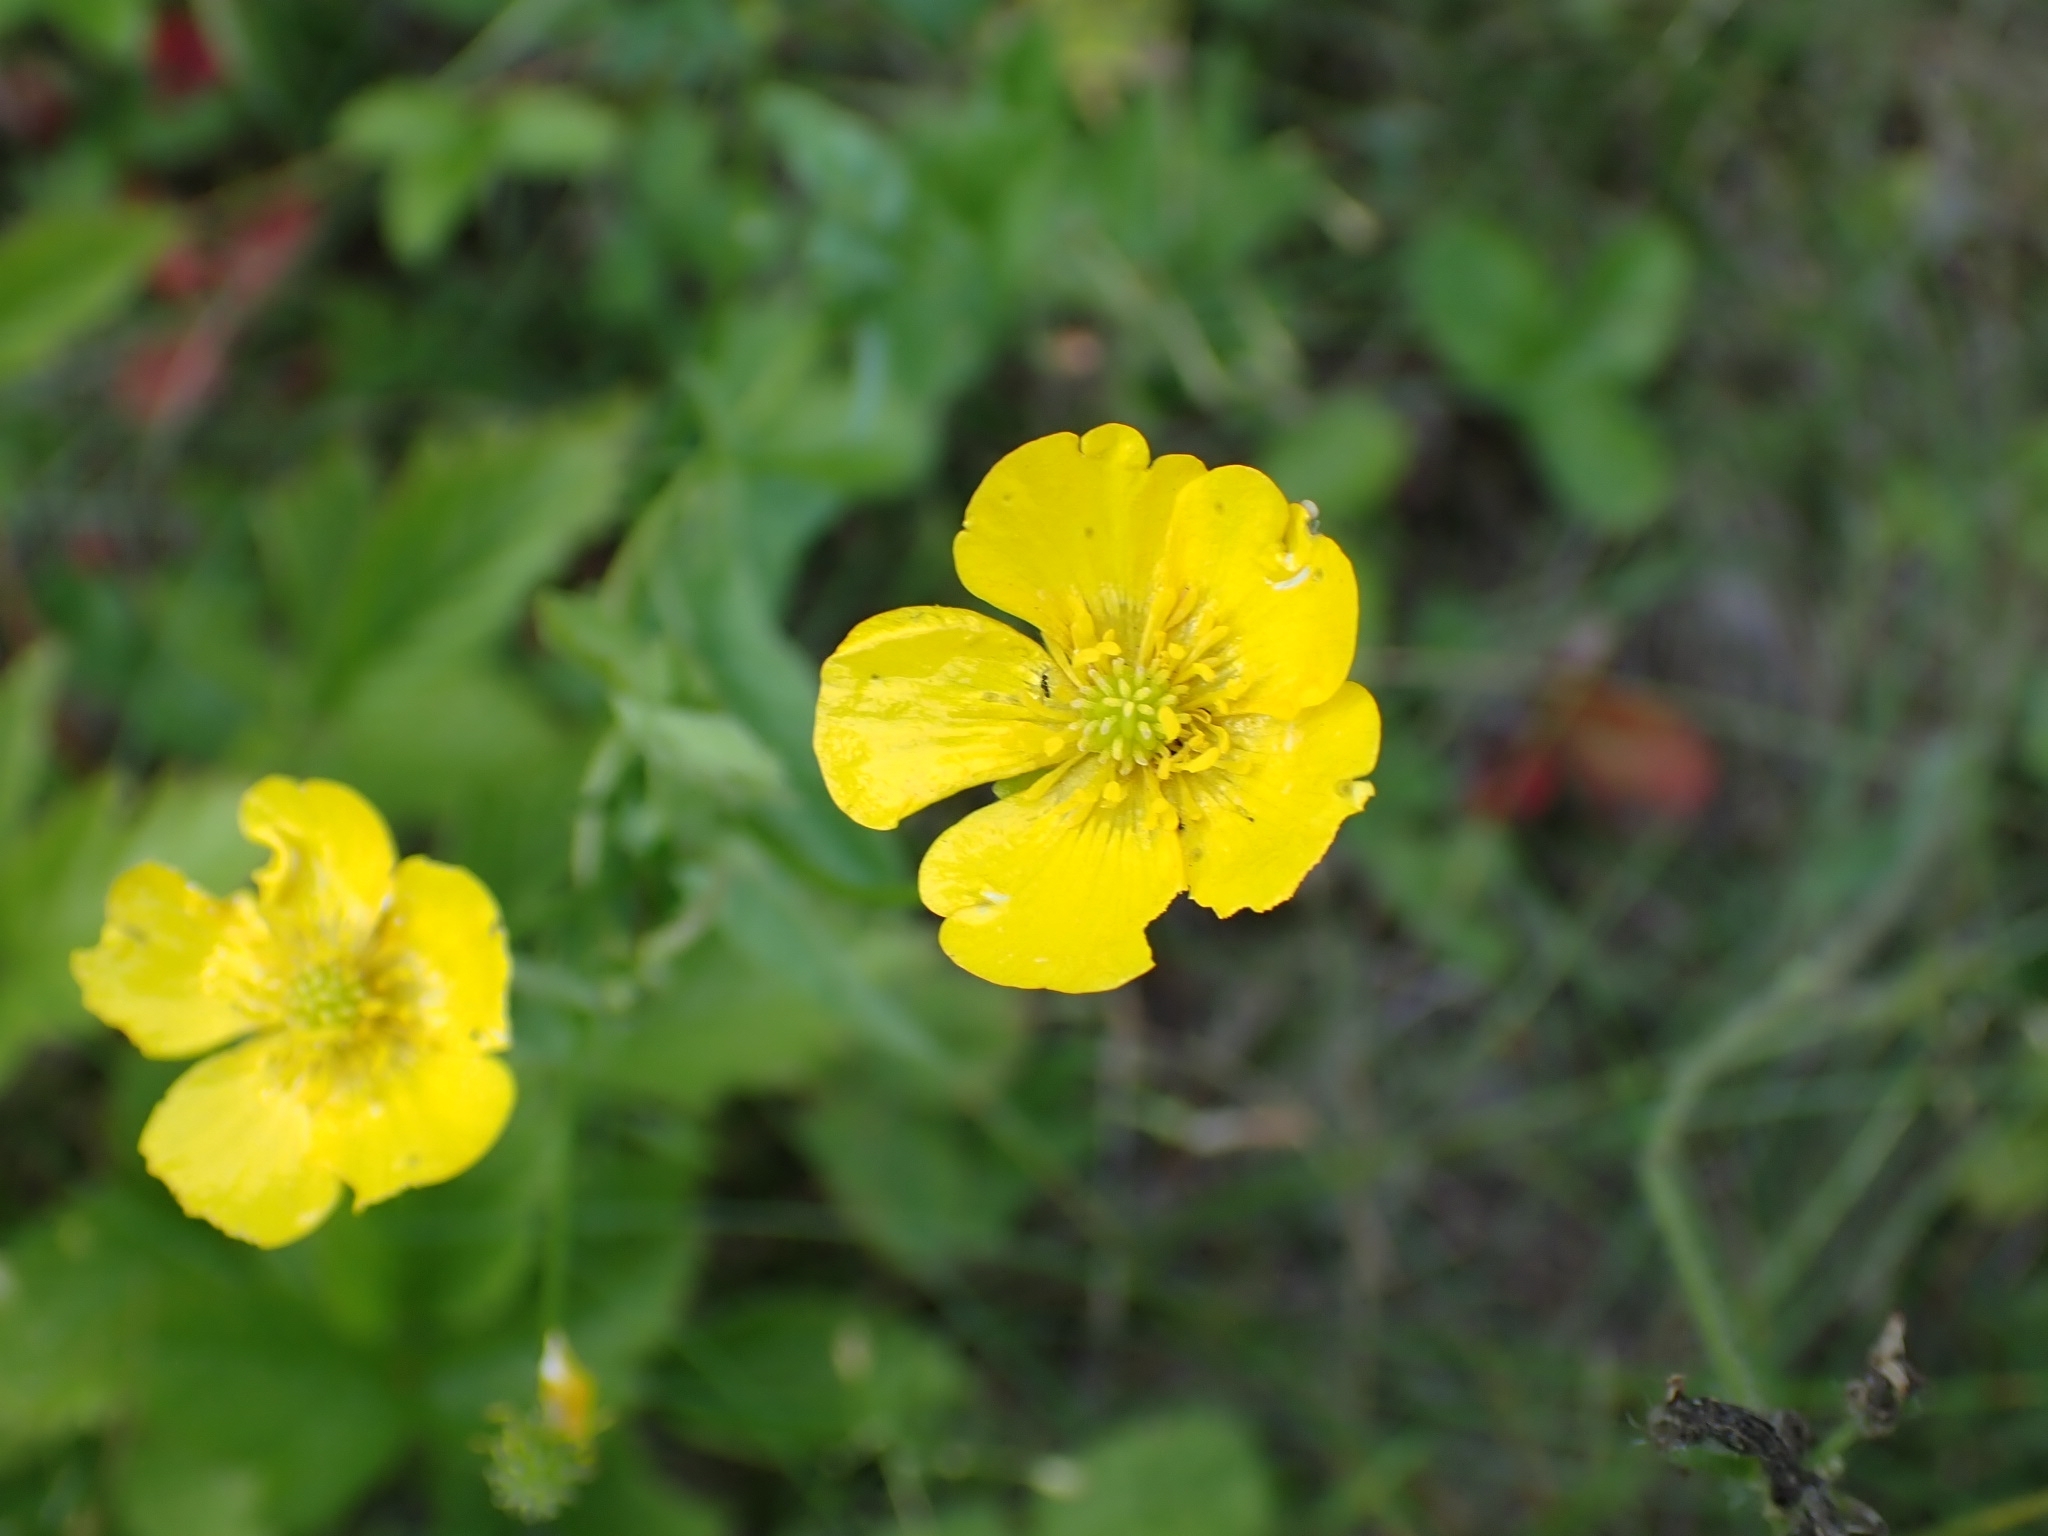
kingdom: Plantae
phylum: Tracheophyta
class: Magnoliopsida
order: Ranunculales
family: Ranunculaceae
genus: Ranunculus
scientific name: Ranunculus polyanthemos
